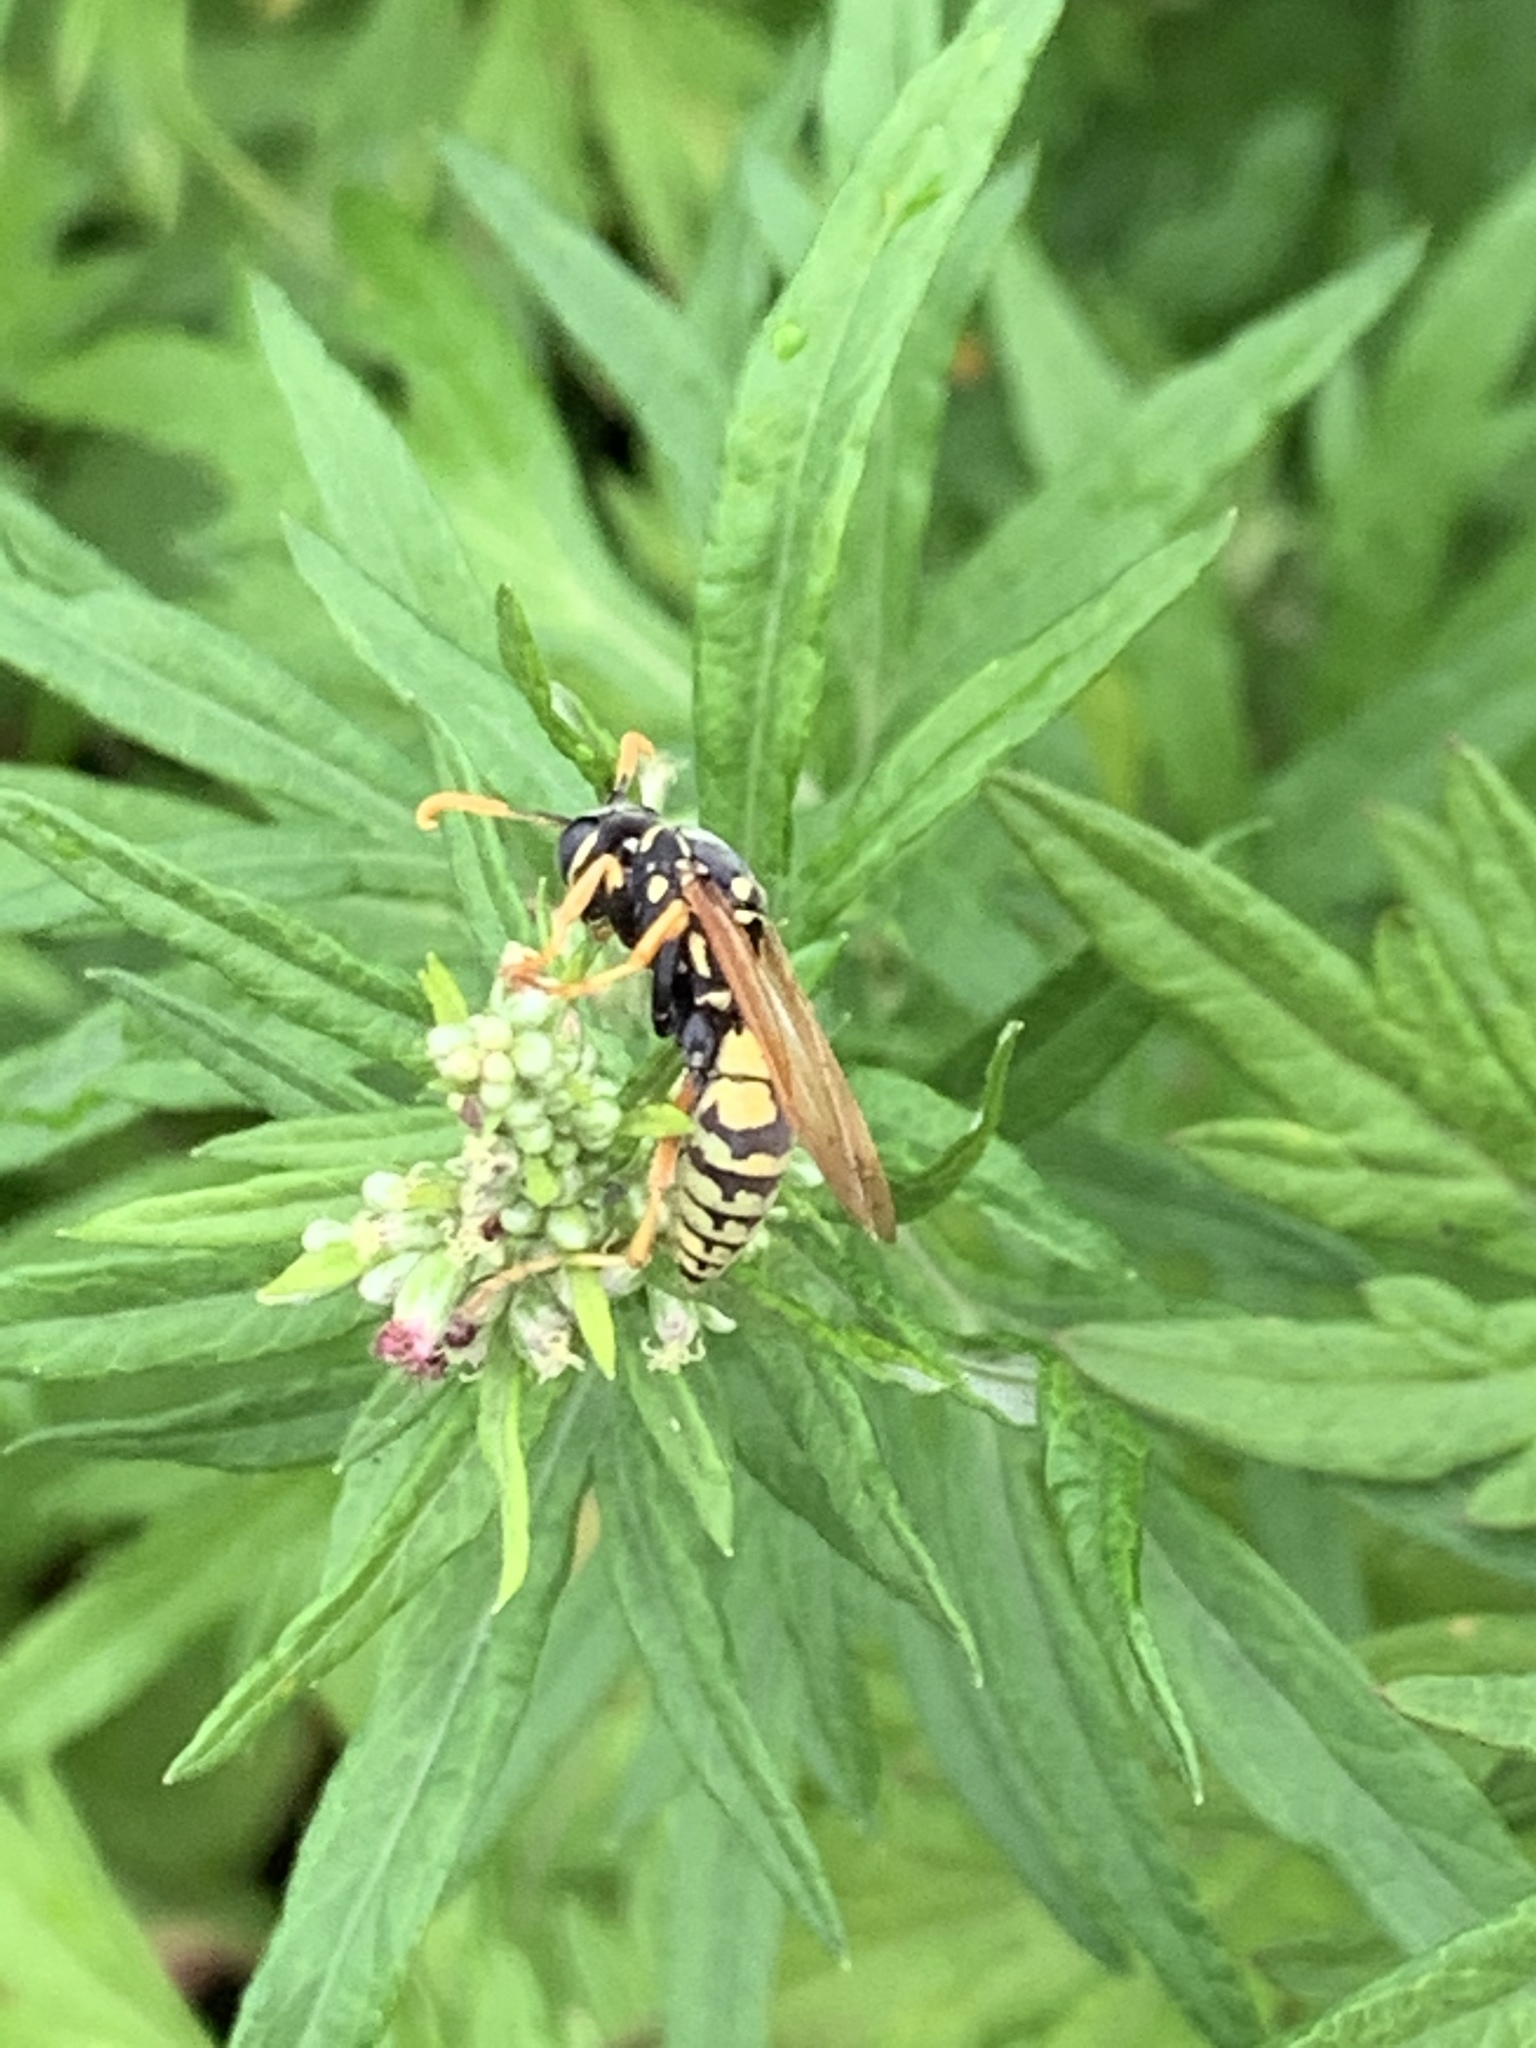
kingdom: Animalia
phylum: Arthropoda
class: Insecta
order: Hymenoptera
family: Eumenidae
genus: Polistes
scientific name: Polistes dominula
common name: Paper wasp
